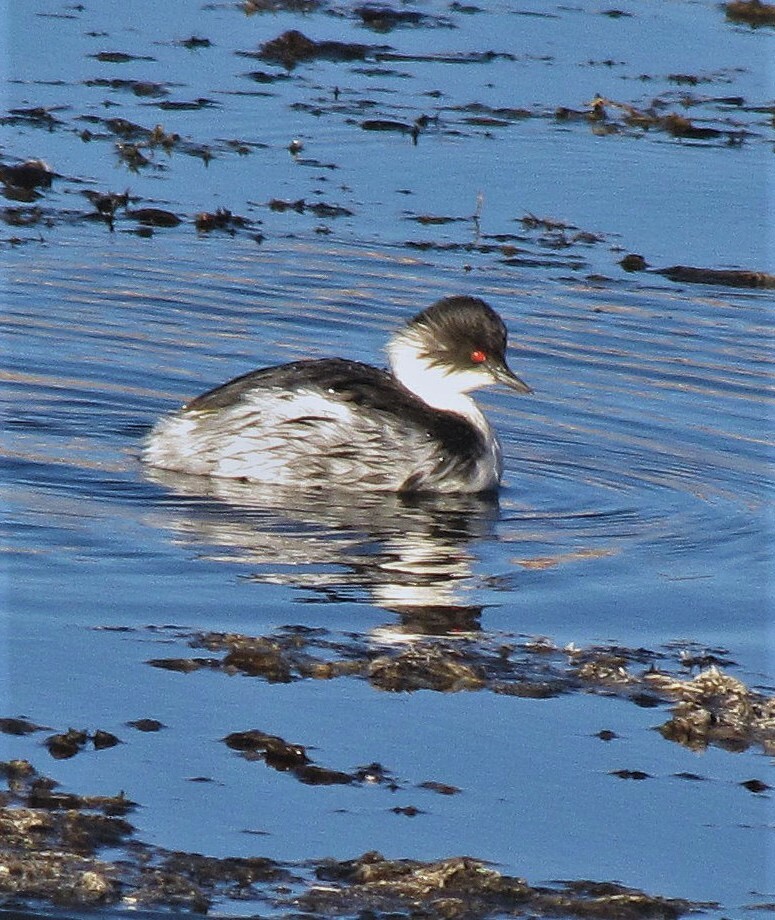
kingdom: Animalia
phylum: Chordata
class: Aves
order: Podicipediformes
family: Podicipedidae
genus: Podiceps
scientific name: Podiceps occipitalis
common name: Silvery grebe
